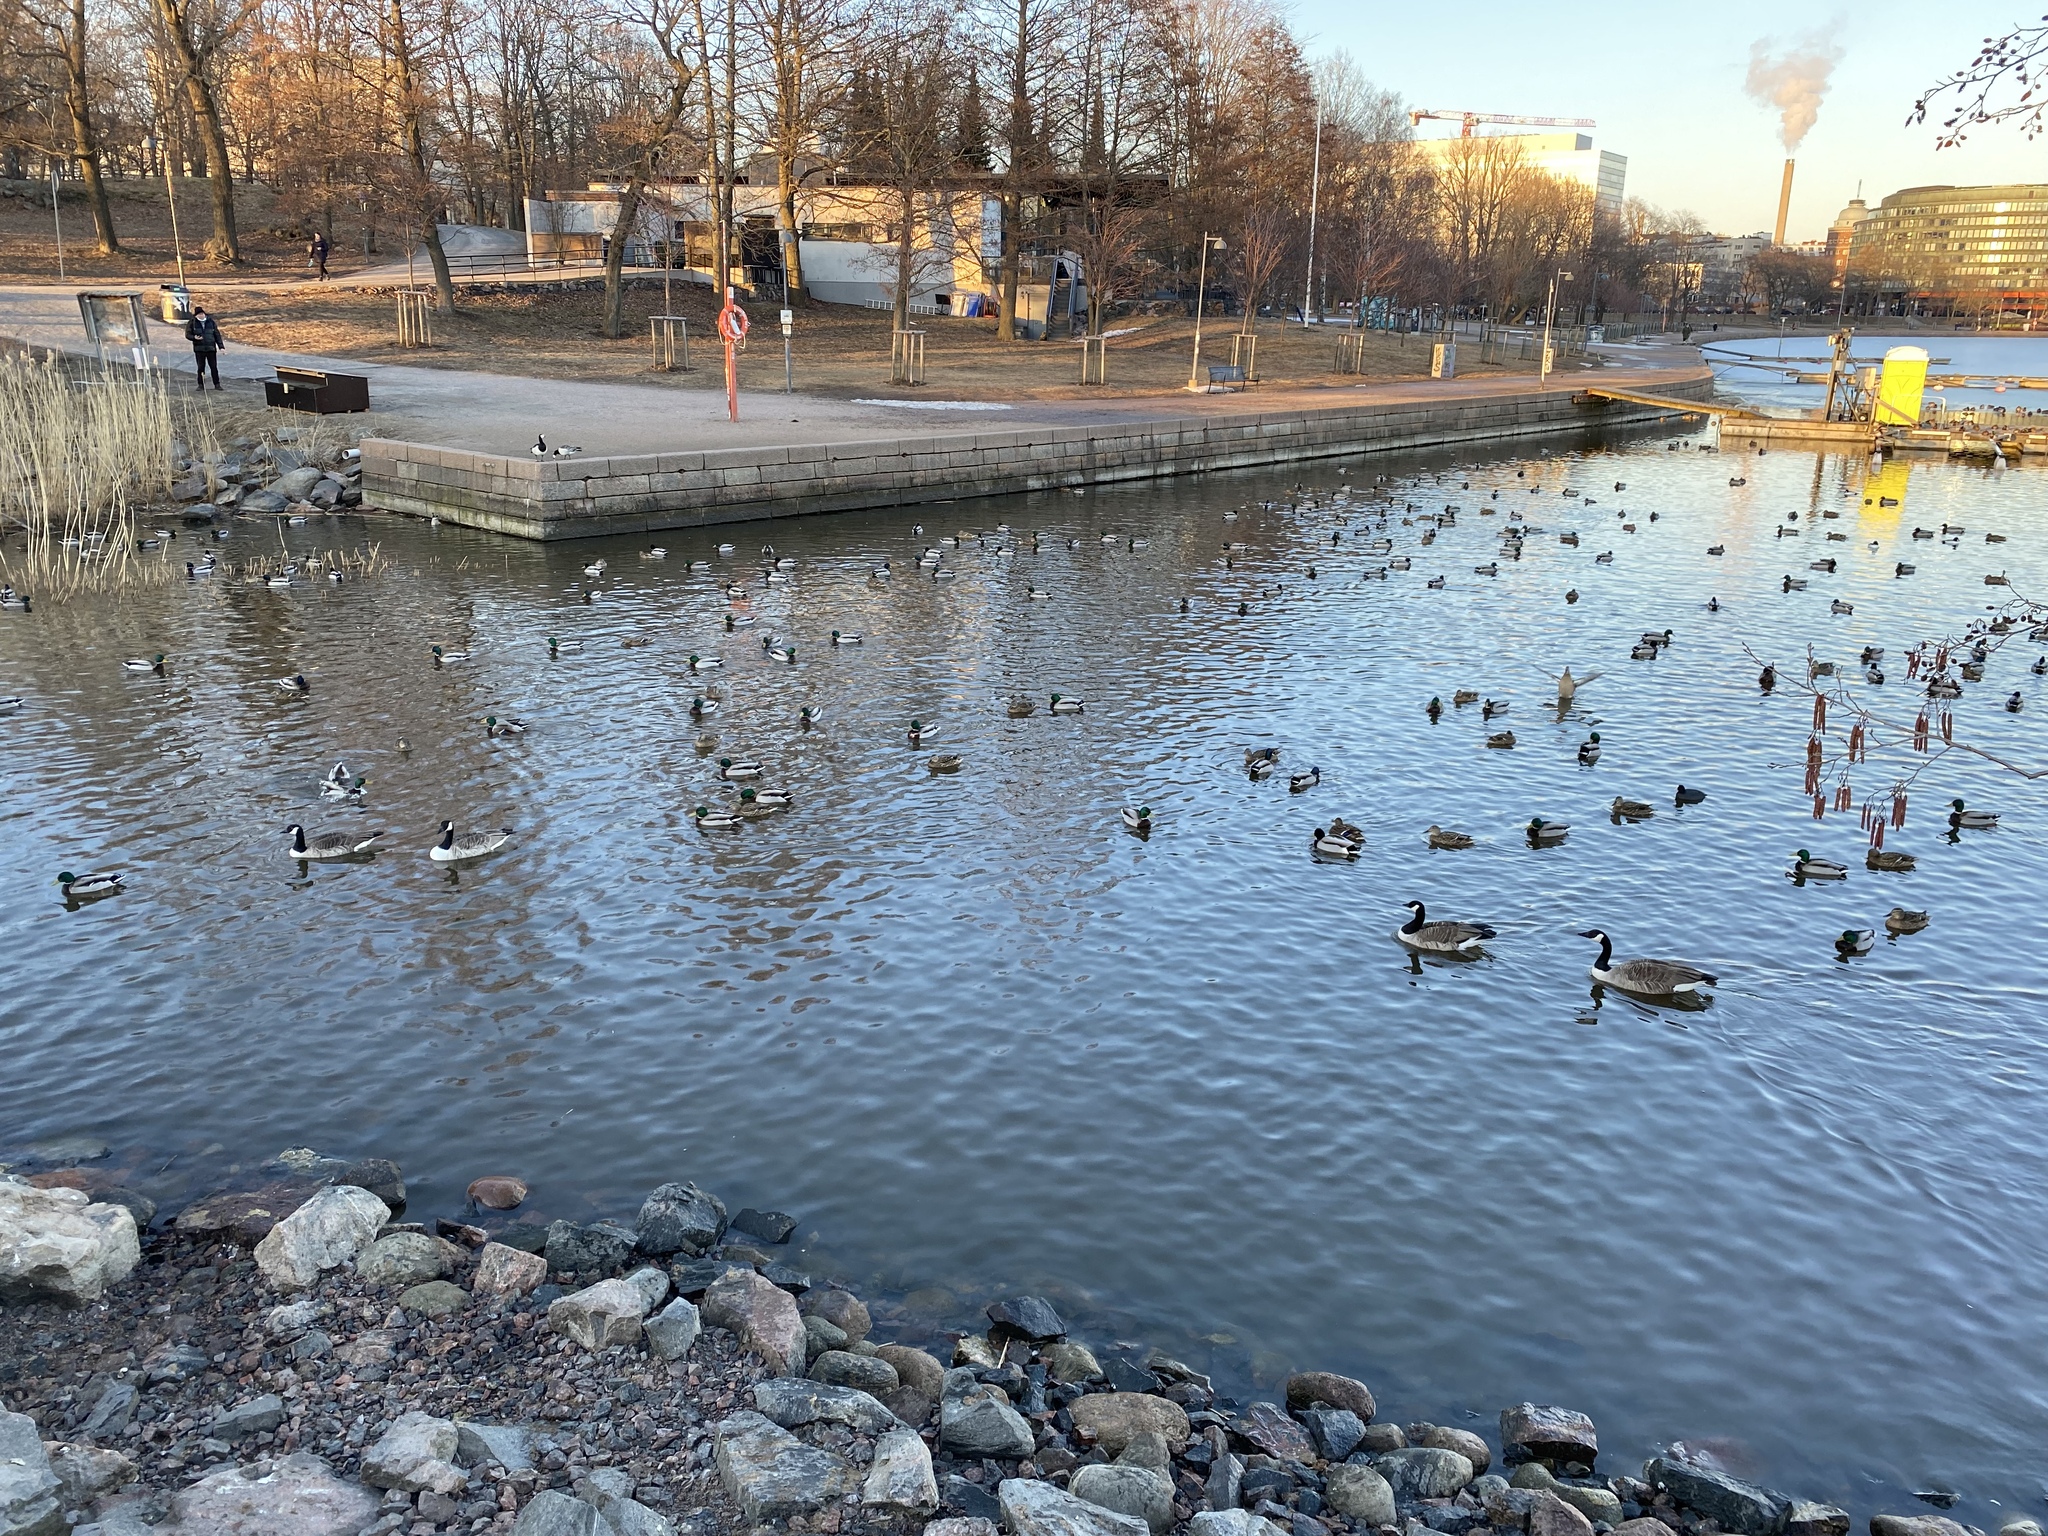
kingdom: Animalia
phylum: Chordata
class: Aves
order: Anseriformes
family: Anatidae
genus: Branta
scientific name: Branta canadensis
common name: Canada goose
